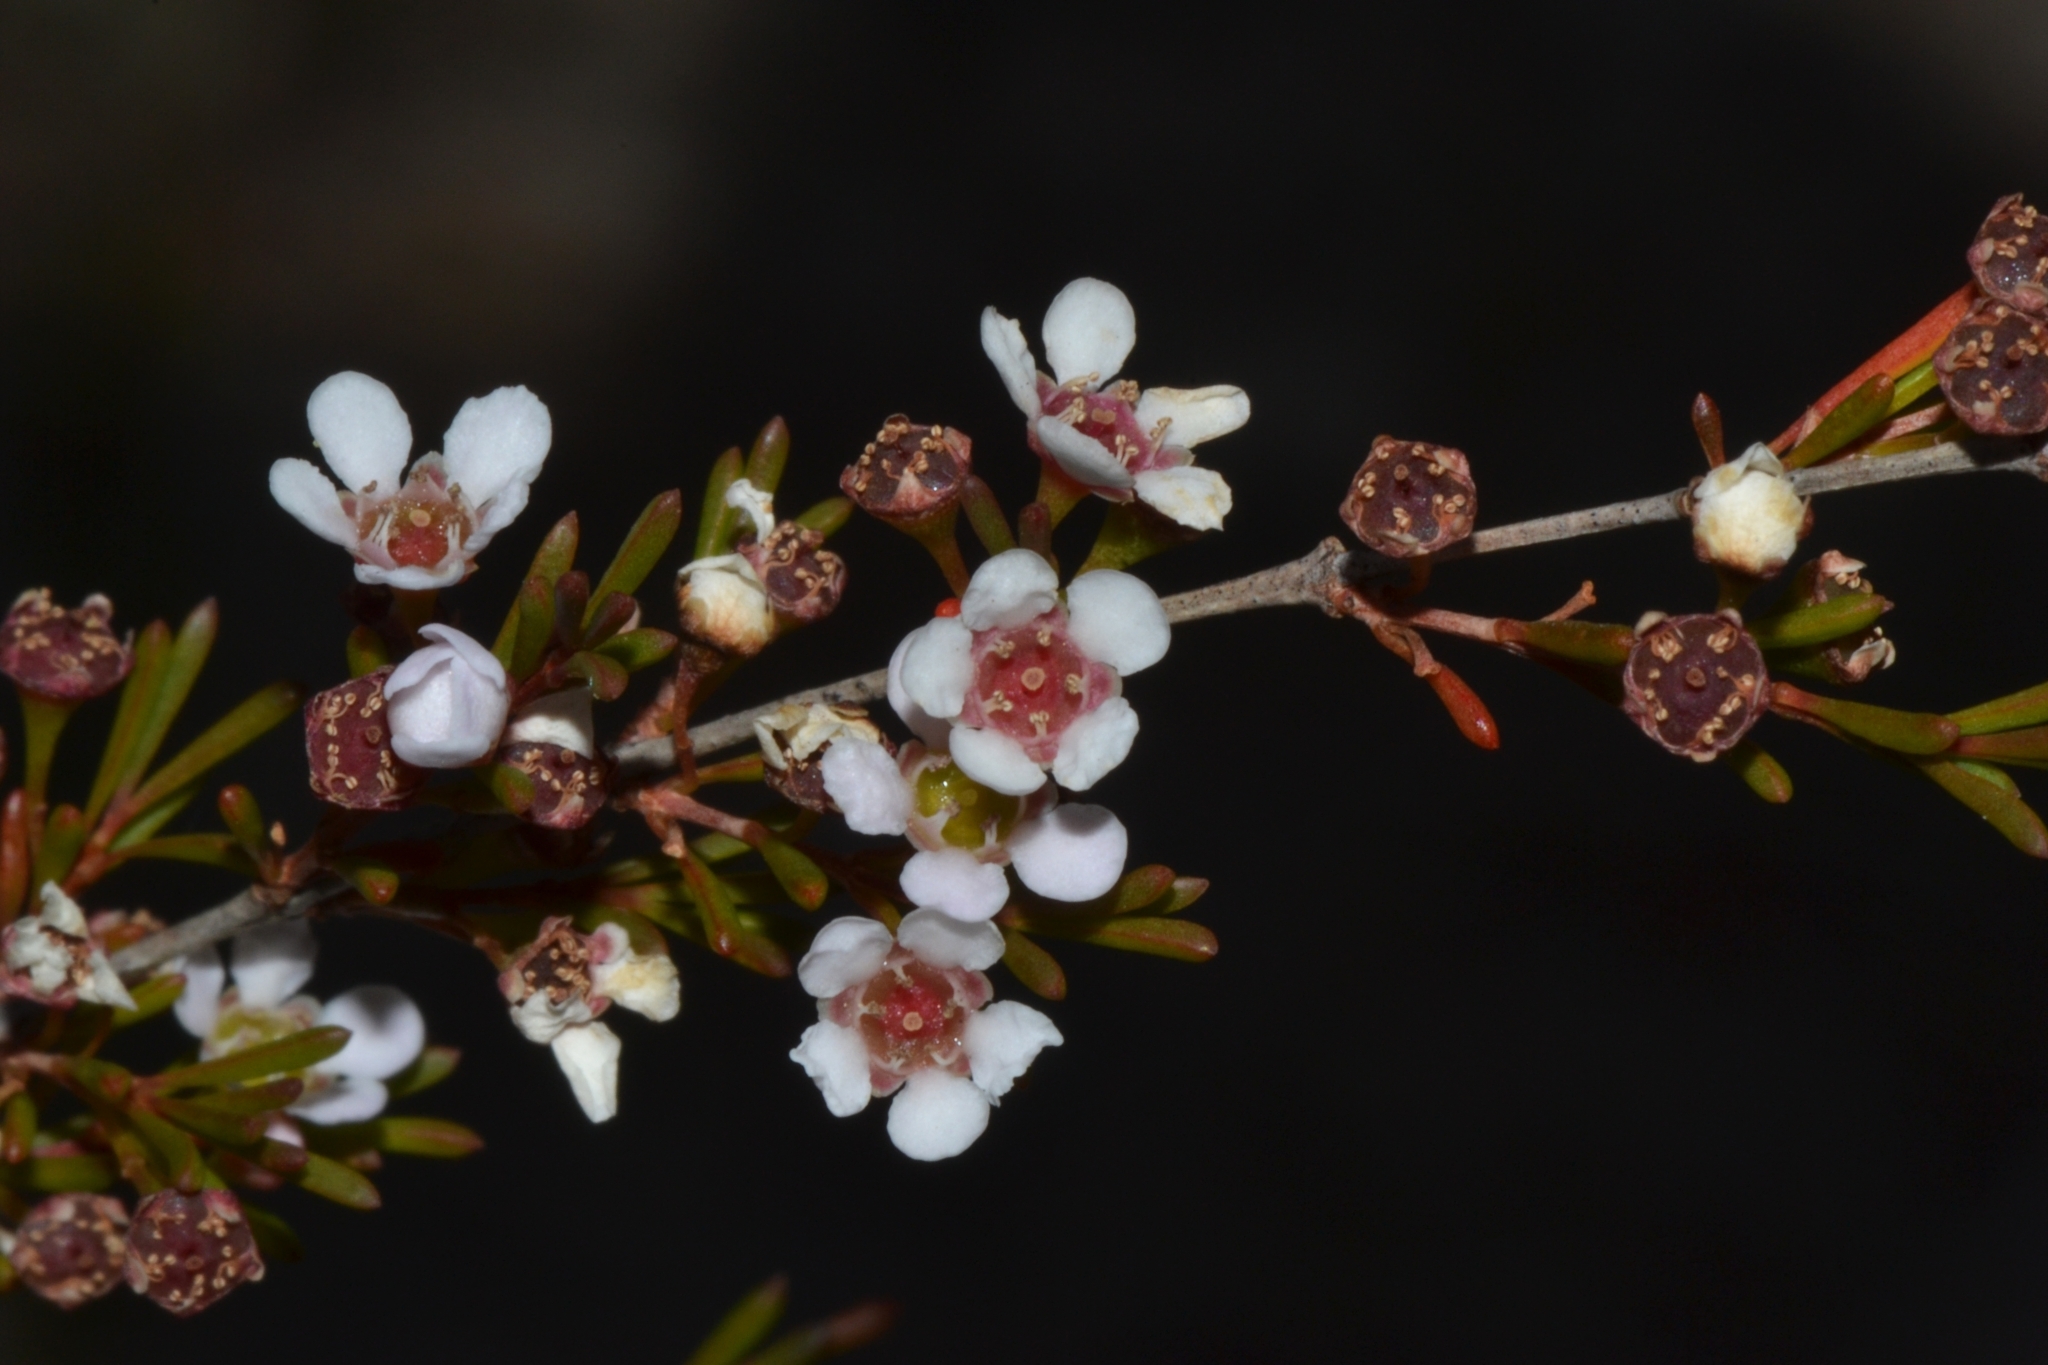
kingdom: Plantae
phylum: Tracheophyta
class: Magnoliopsida
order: Myrtales
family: Myrtaceae
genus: Astartea
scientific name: Astartea fascicularis
